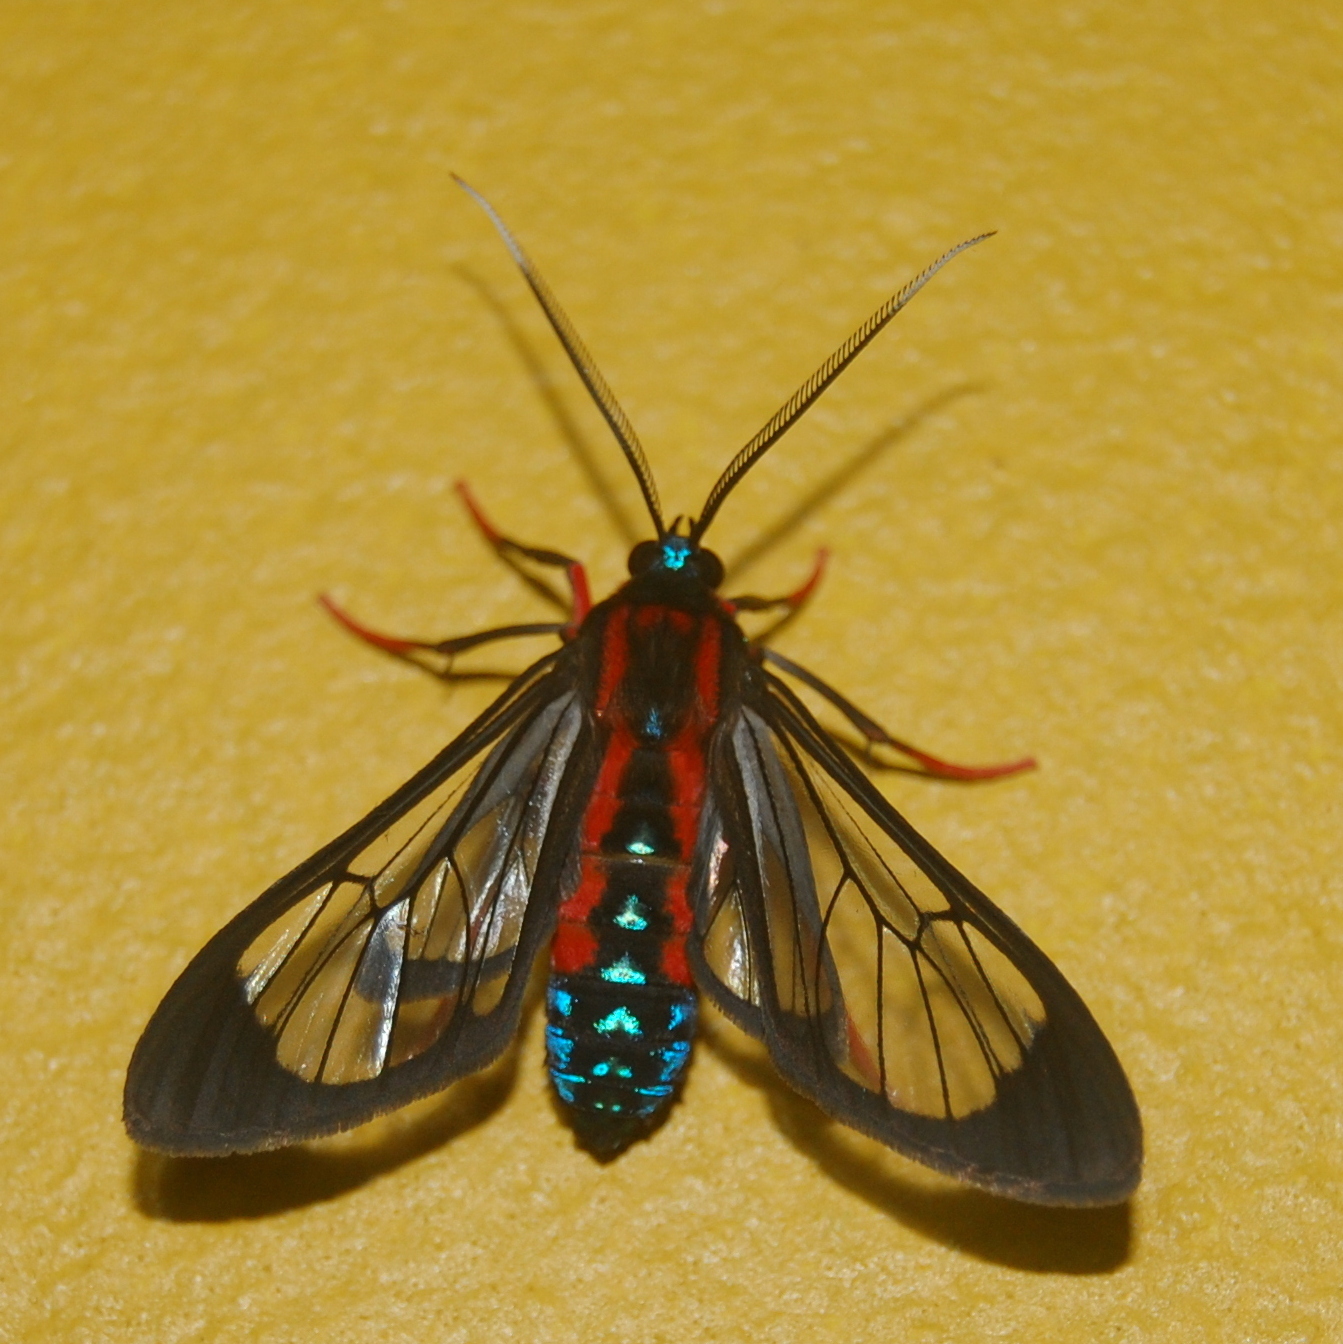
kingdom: Animalia
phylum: Arthropoda
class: Insecta
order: Lepidoptera
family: Erebidae
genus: Cosmosoma
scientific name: Cosmosoma auge
